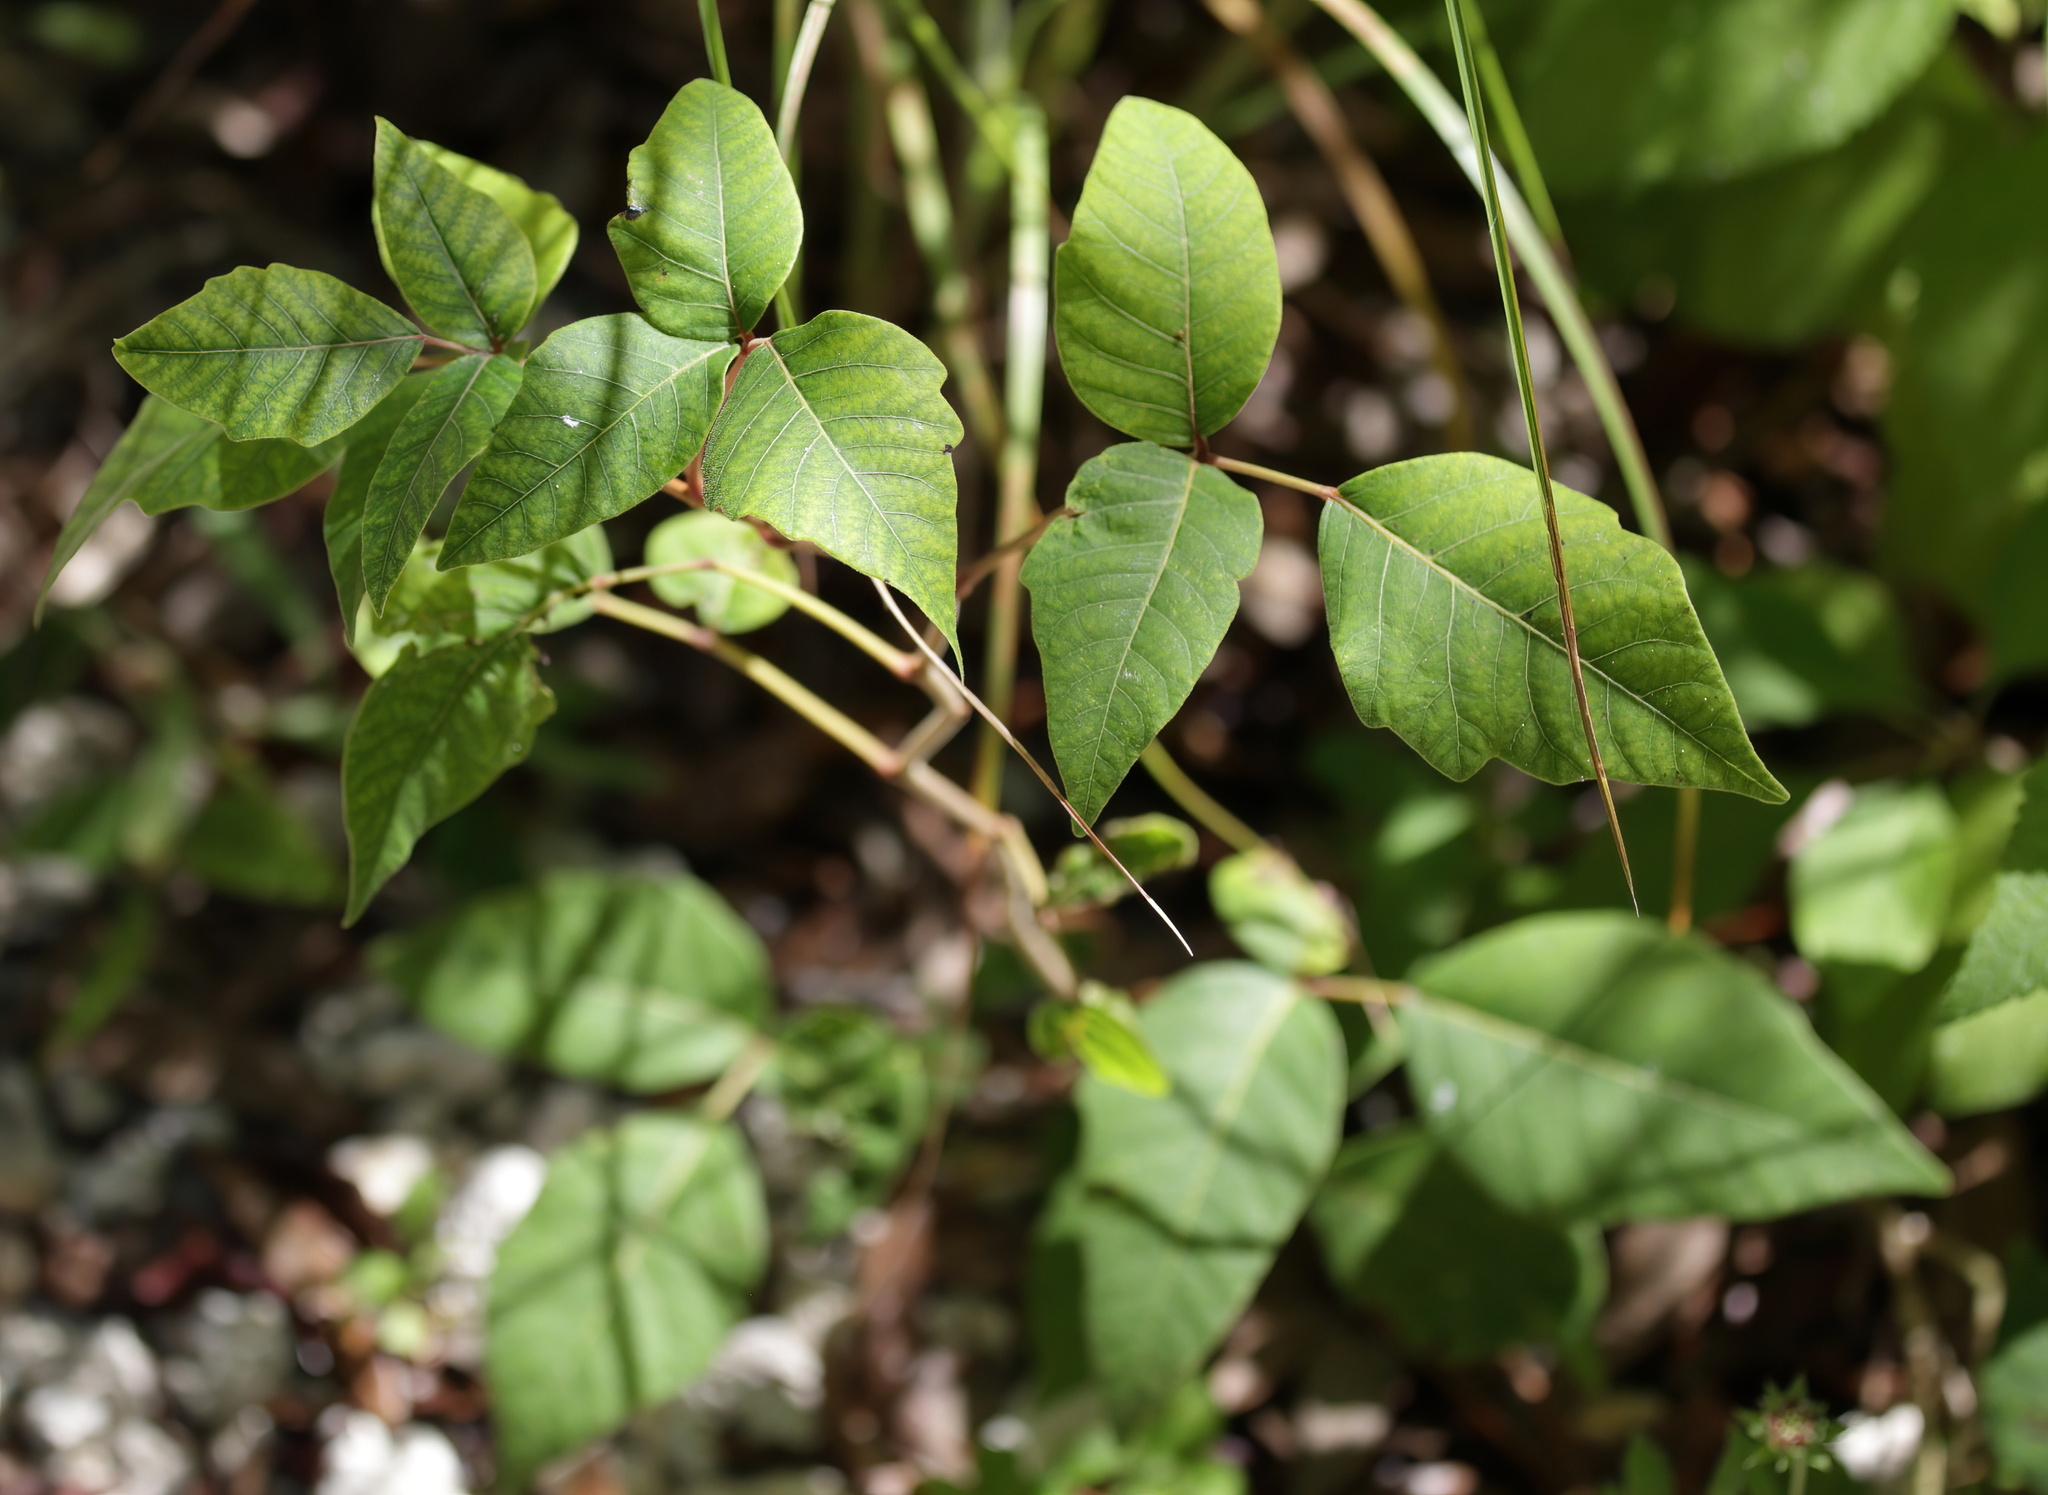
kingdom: Plantae
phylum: Tracheophyta
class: Magnoliopsida
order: Sapindales
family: Anacardiaceae
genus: Toxicodendron
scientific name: Toxicodendron radicans
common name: Poison ivy
